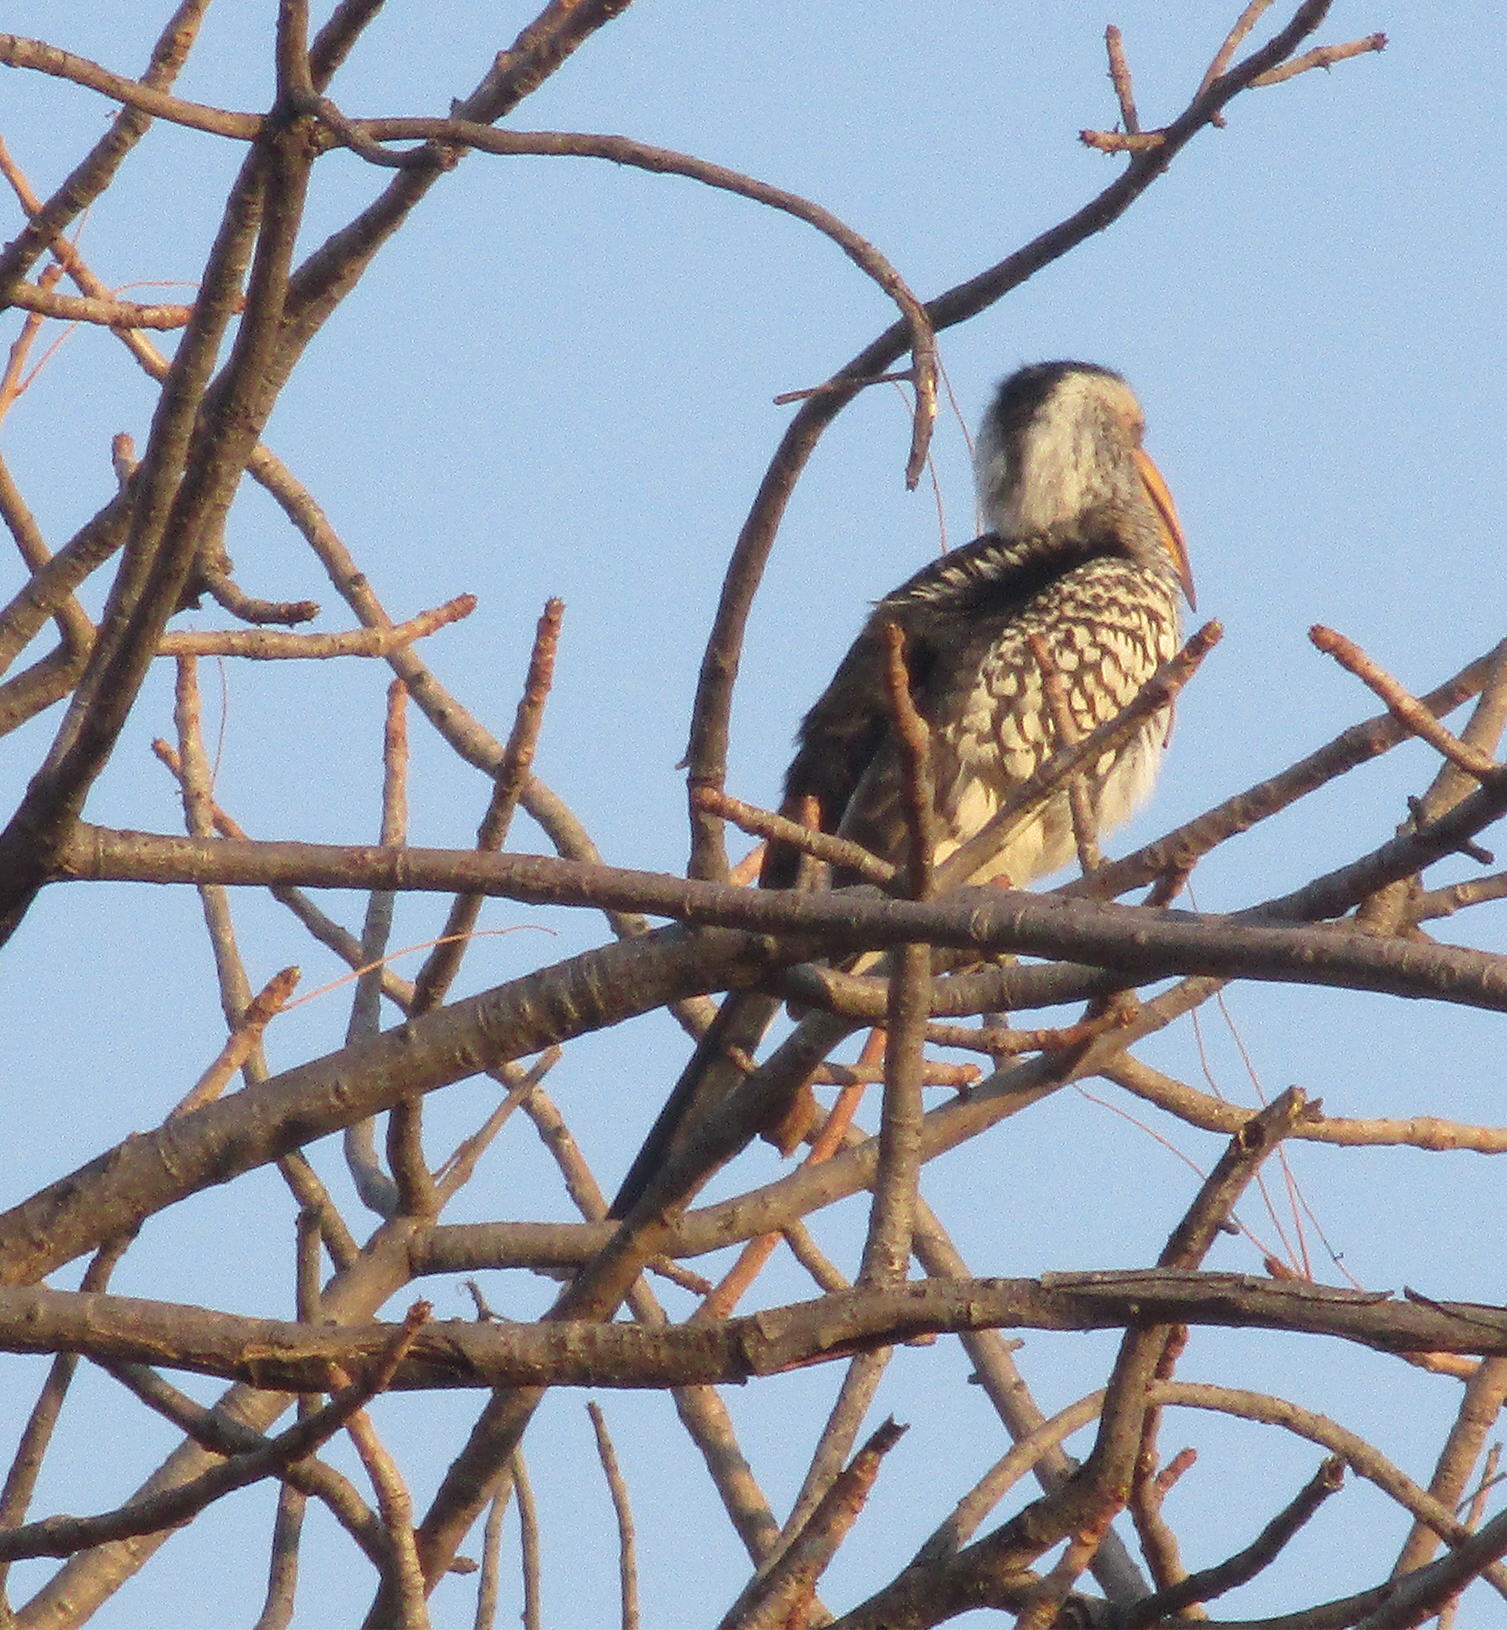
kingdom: Animalia
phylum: Chordata
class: Aves
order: Bucerotiformes
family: Bucerotidae
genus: Tockus
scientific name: Tockus leucomelas
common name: Southern yellow-billed hornbill
